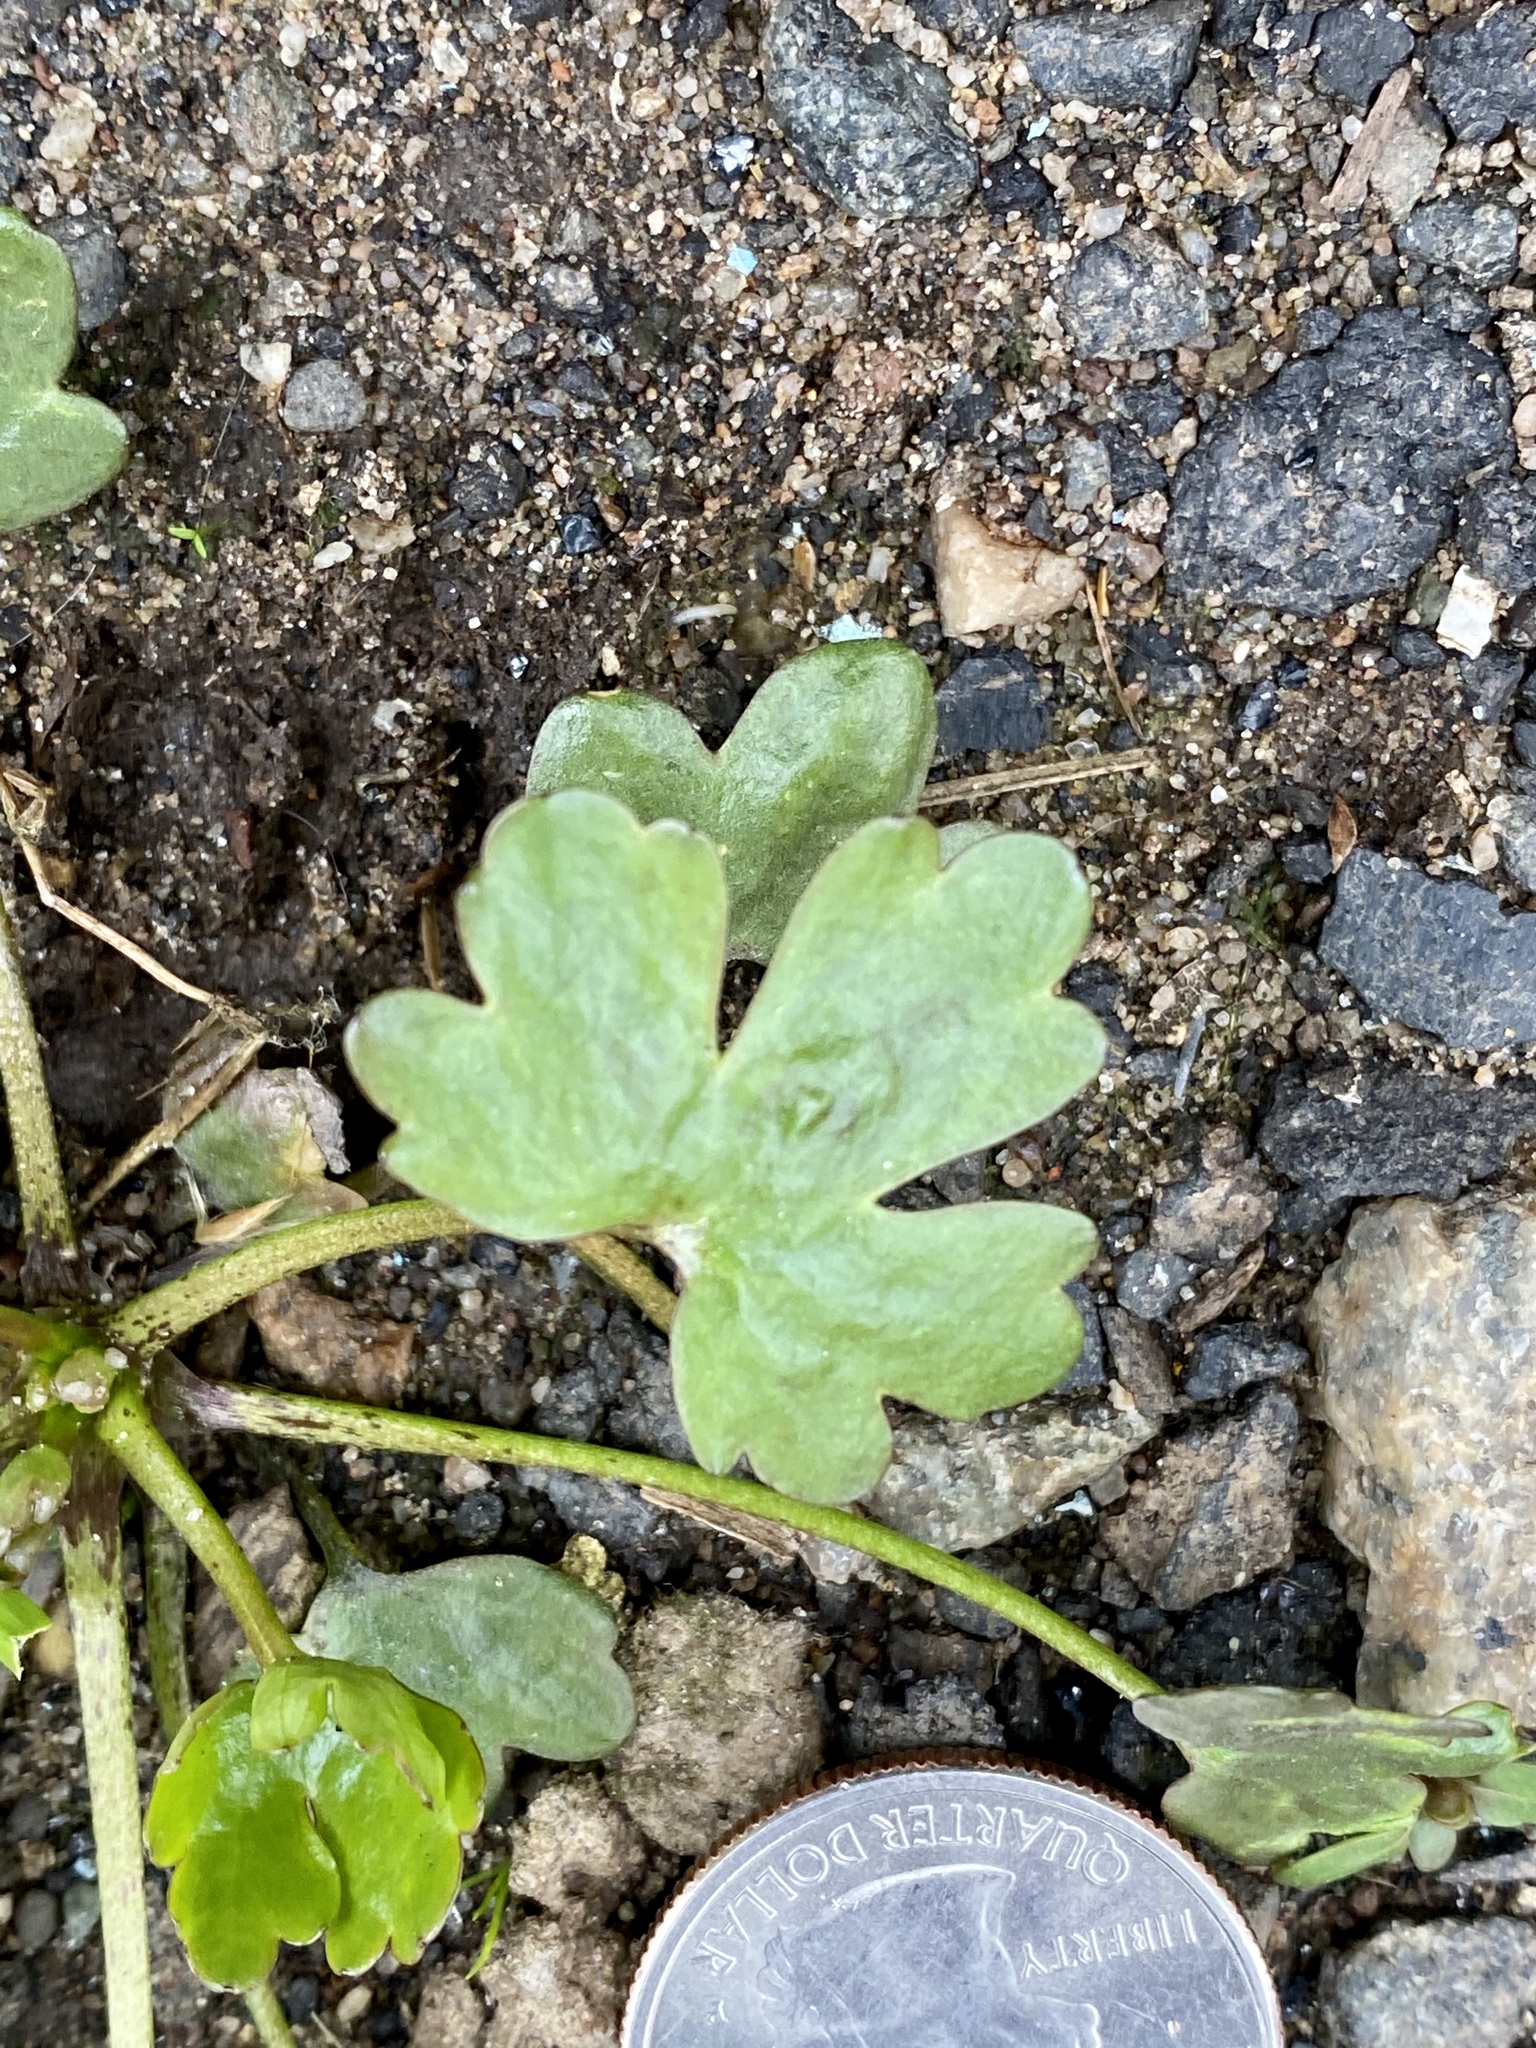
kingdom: Plantae
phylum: Tracheophyta
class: Magnoliopsida
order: Ranunculales
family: Ranunculaceae
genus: Ranunculus
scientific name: Ranunculus sceleratus
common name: Celery-leaved buttercup
